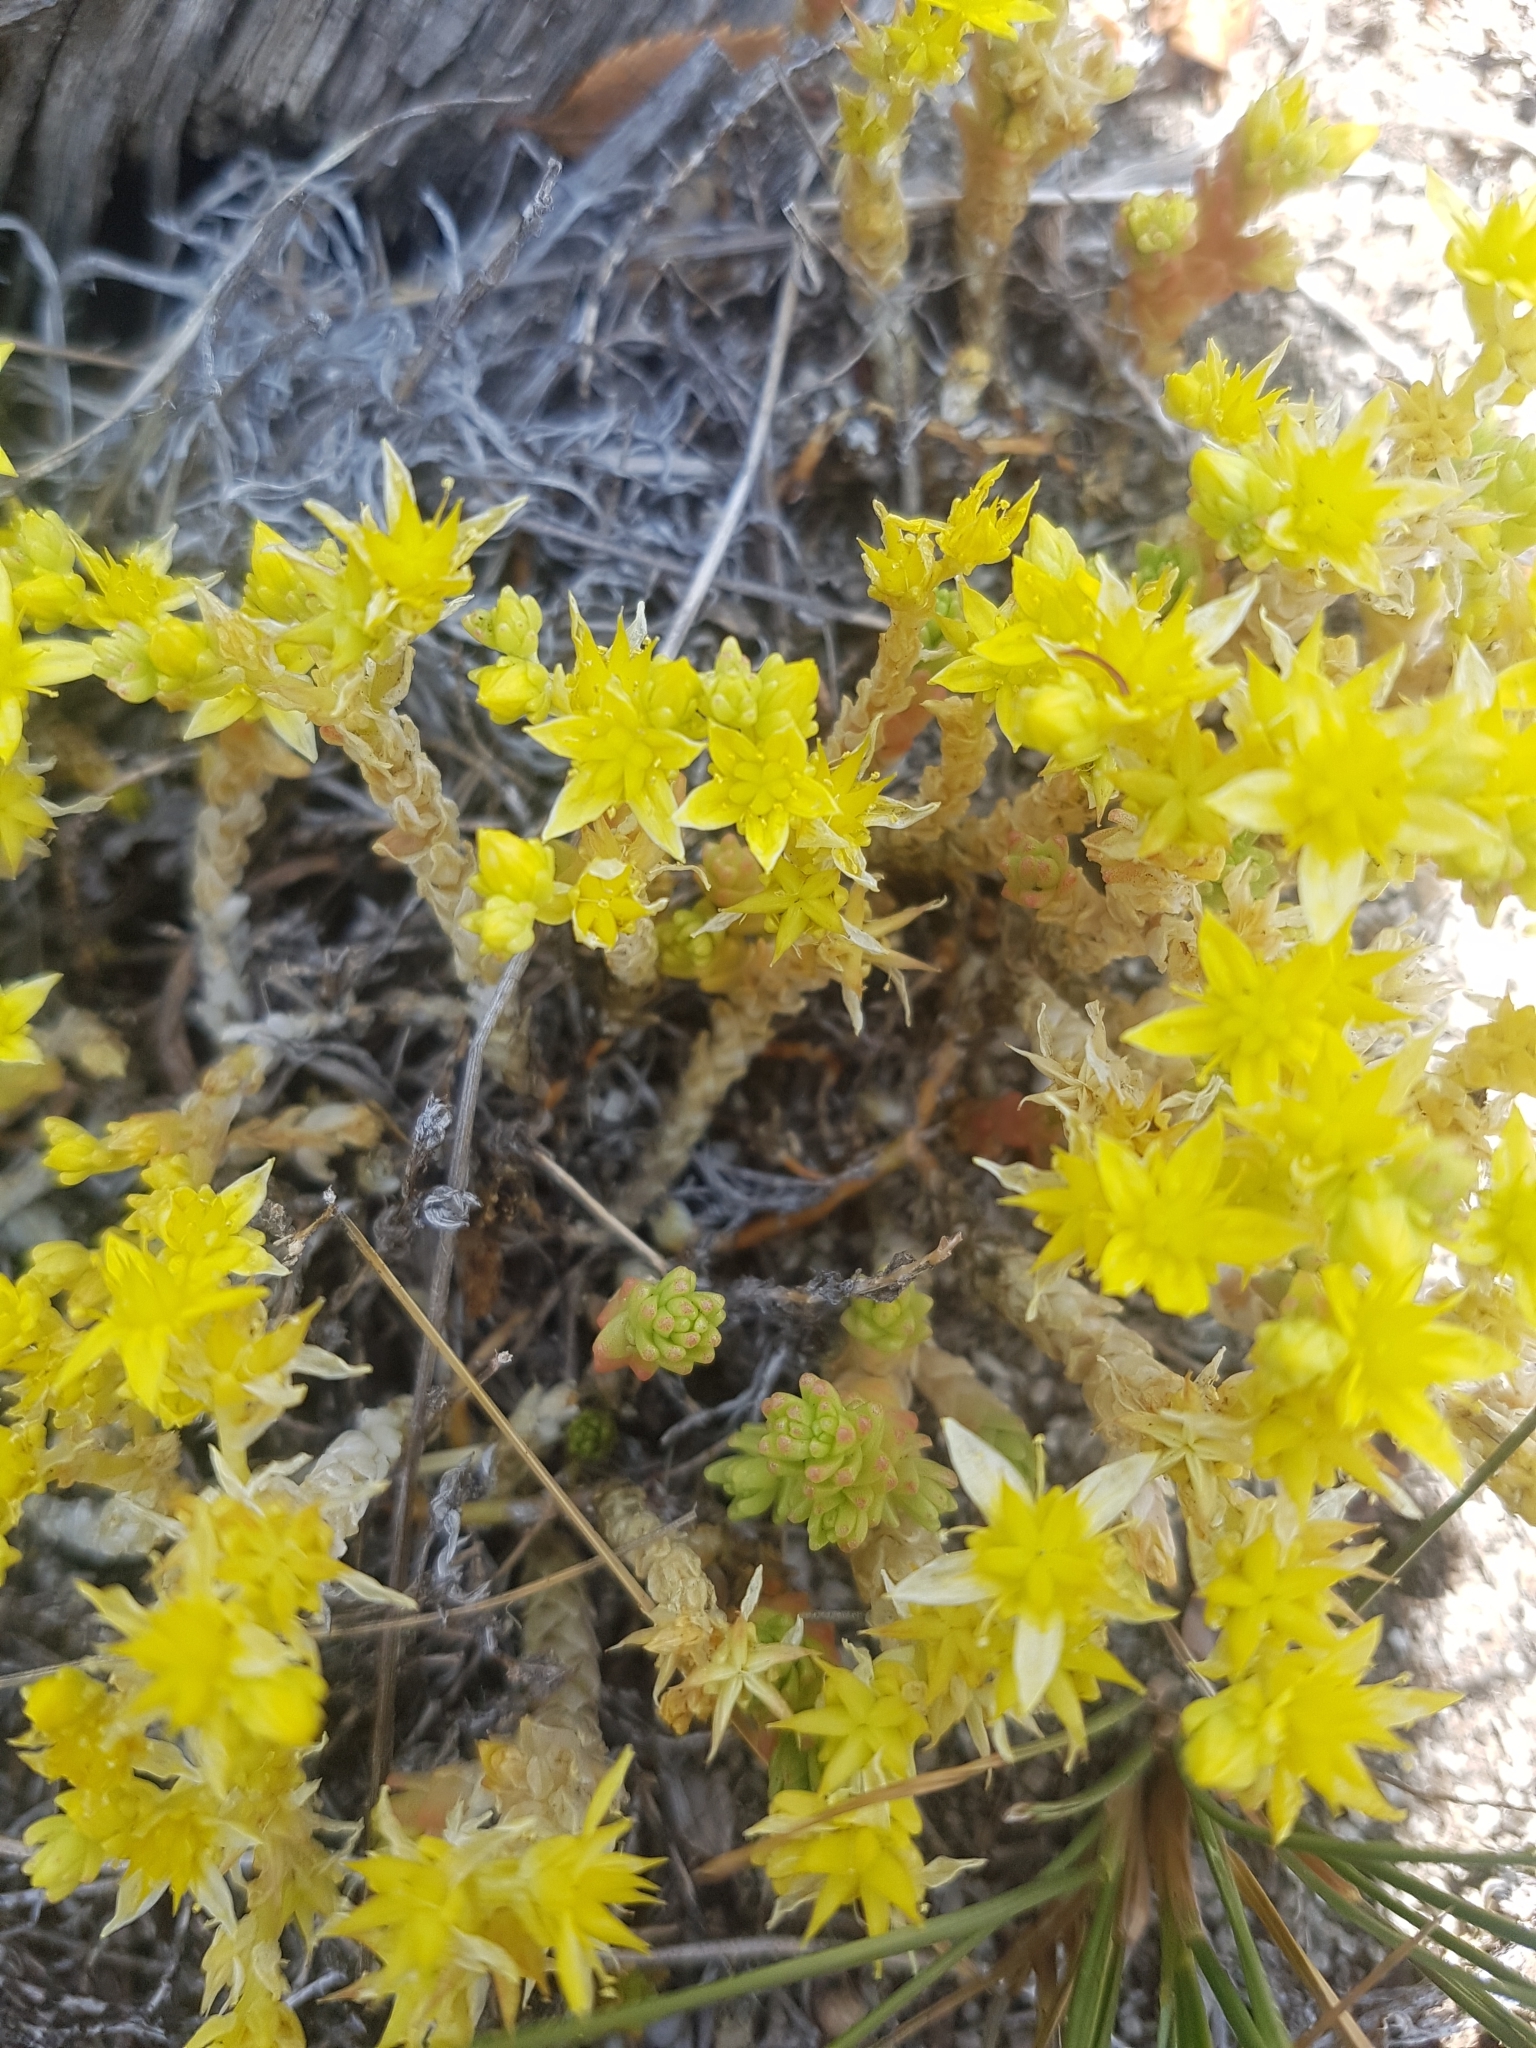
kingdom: Plantae
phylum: Tracheophyta
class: Magnoliopsida
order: Saxifragales
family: Crassulaceae
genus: Sedum
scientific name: Sedum acre
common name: Biting stonecrop
